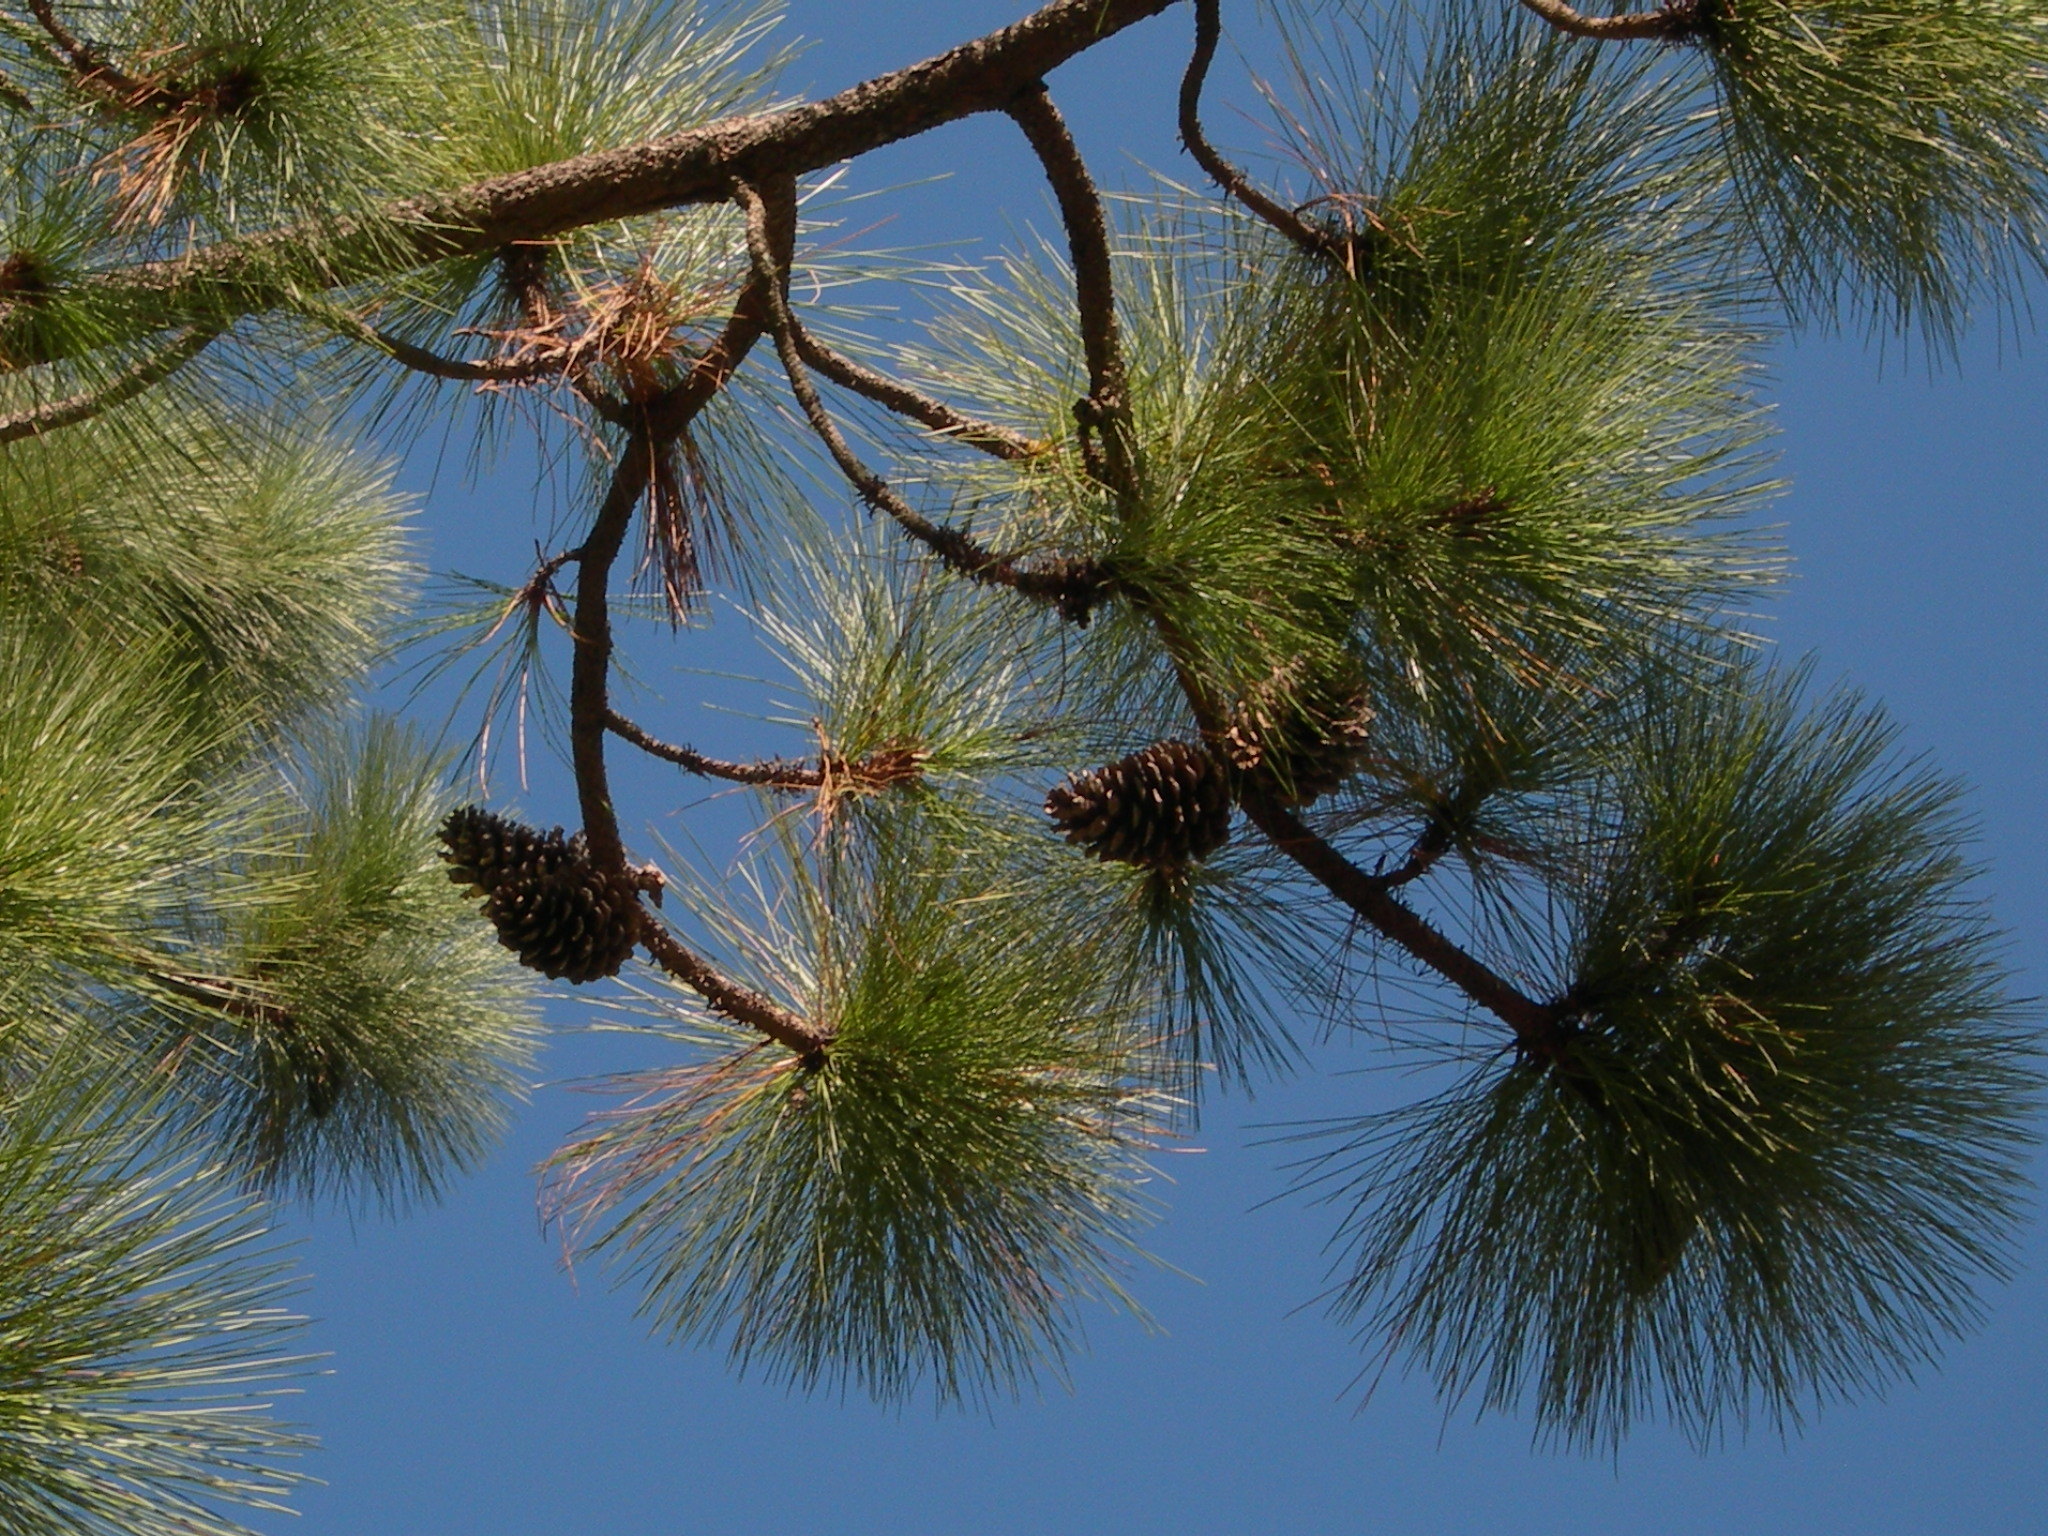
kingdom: Plantae
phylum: Tracheophyta
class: Pinopsida
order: Pinales
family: Pinaceae
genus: Pinus
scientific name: Pinus montezumae
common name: Montezuma pine
